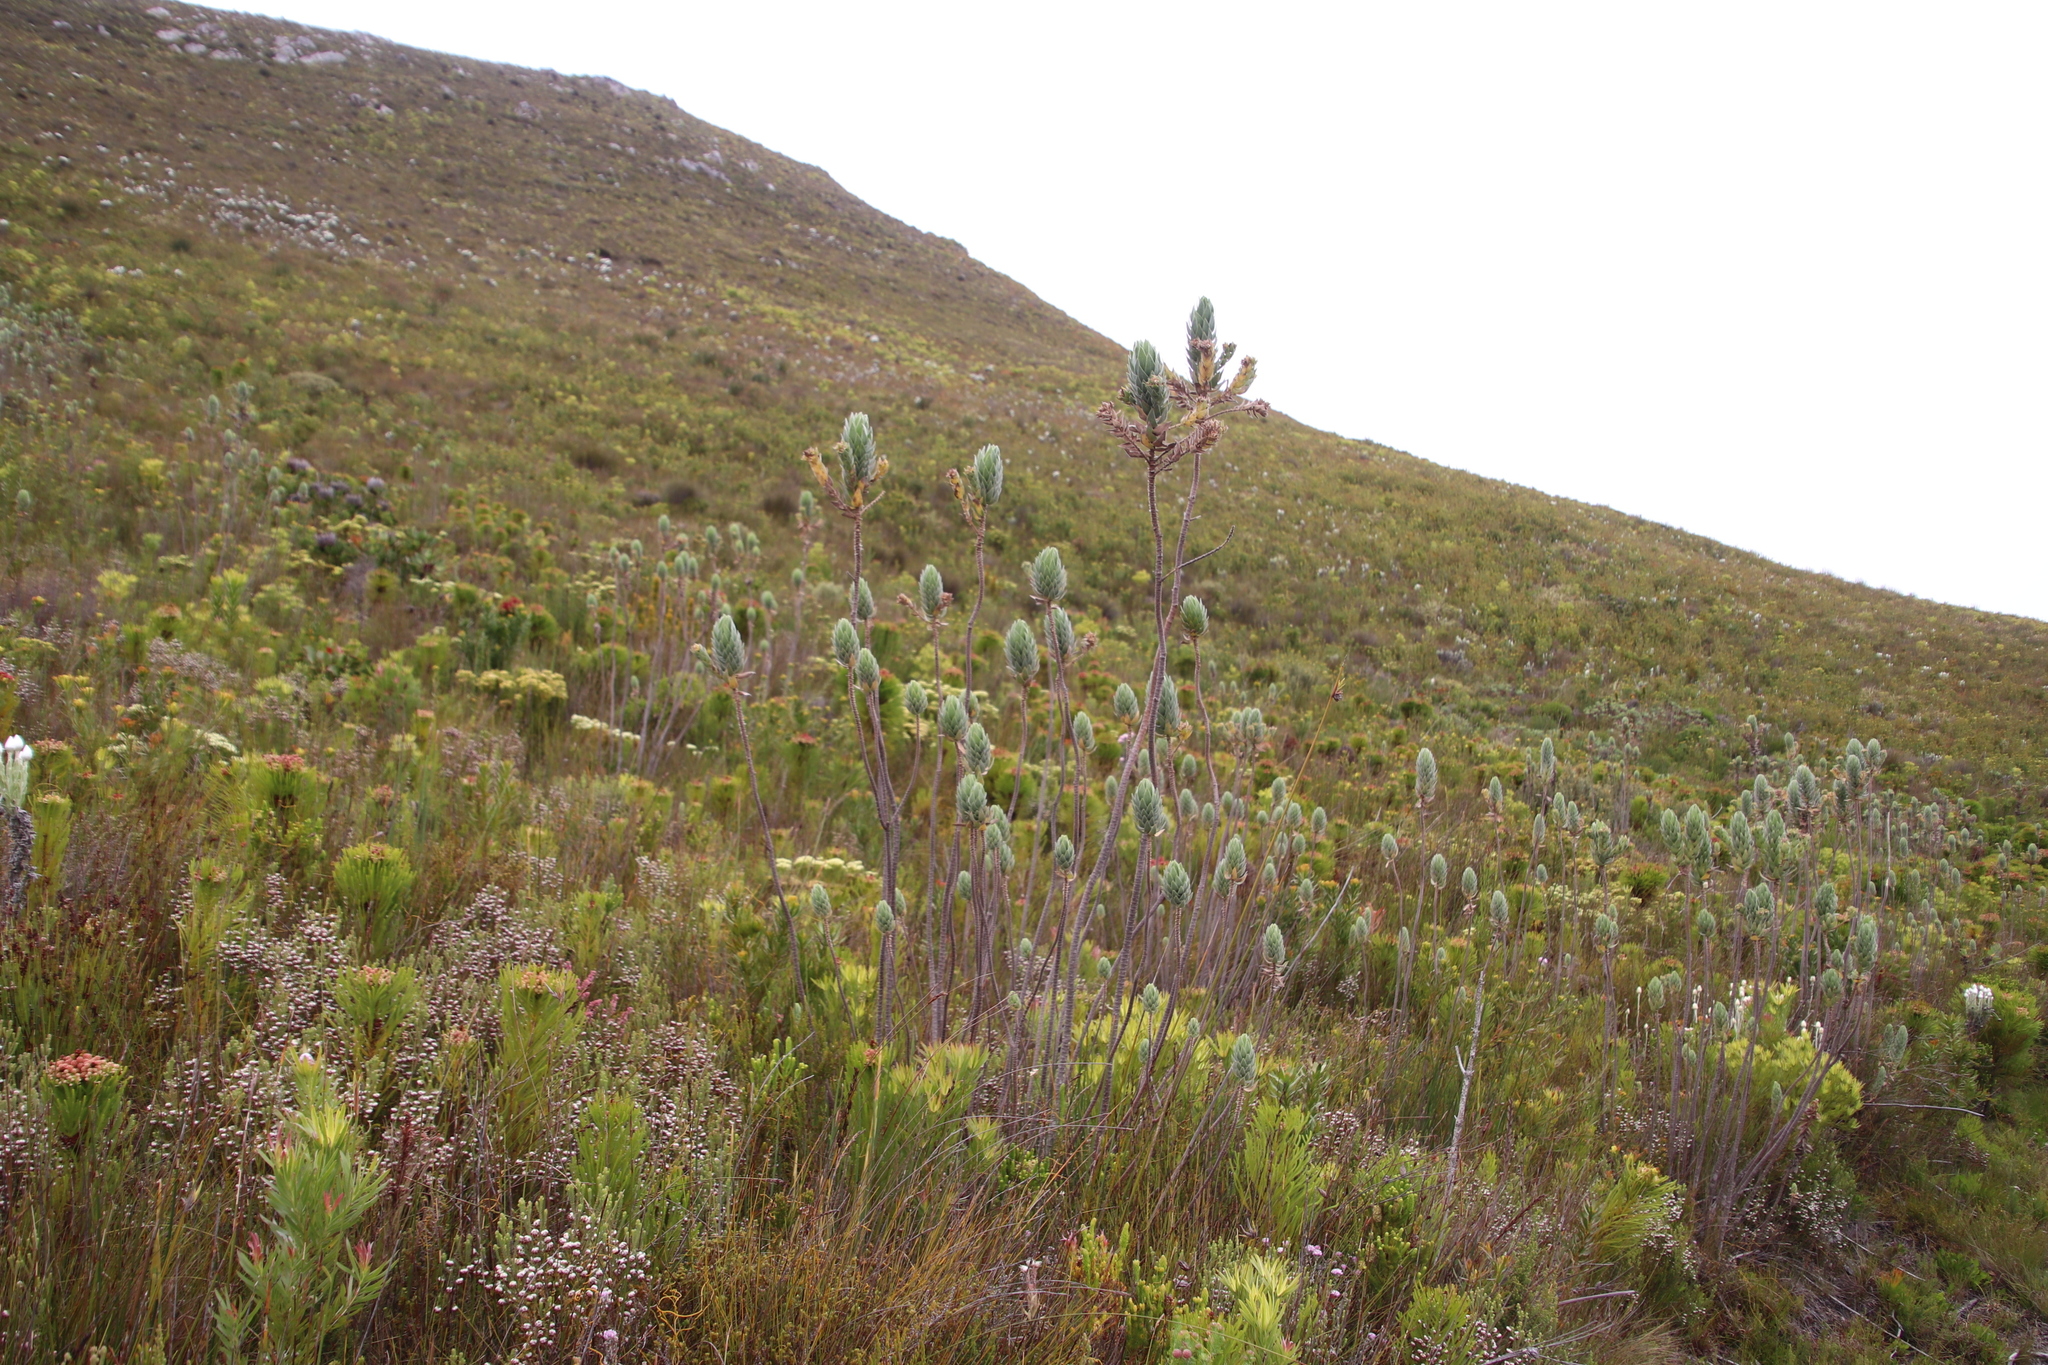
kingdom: Plantae
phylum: Tracheophyta
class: Magnoliopsida
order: Asterales
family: Asteraceae
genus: Osmitopsis
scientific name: Osmitopsis asteriscoides
